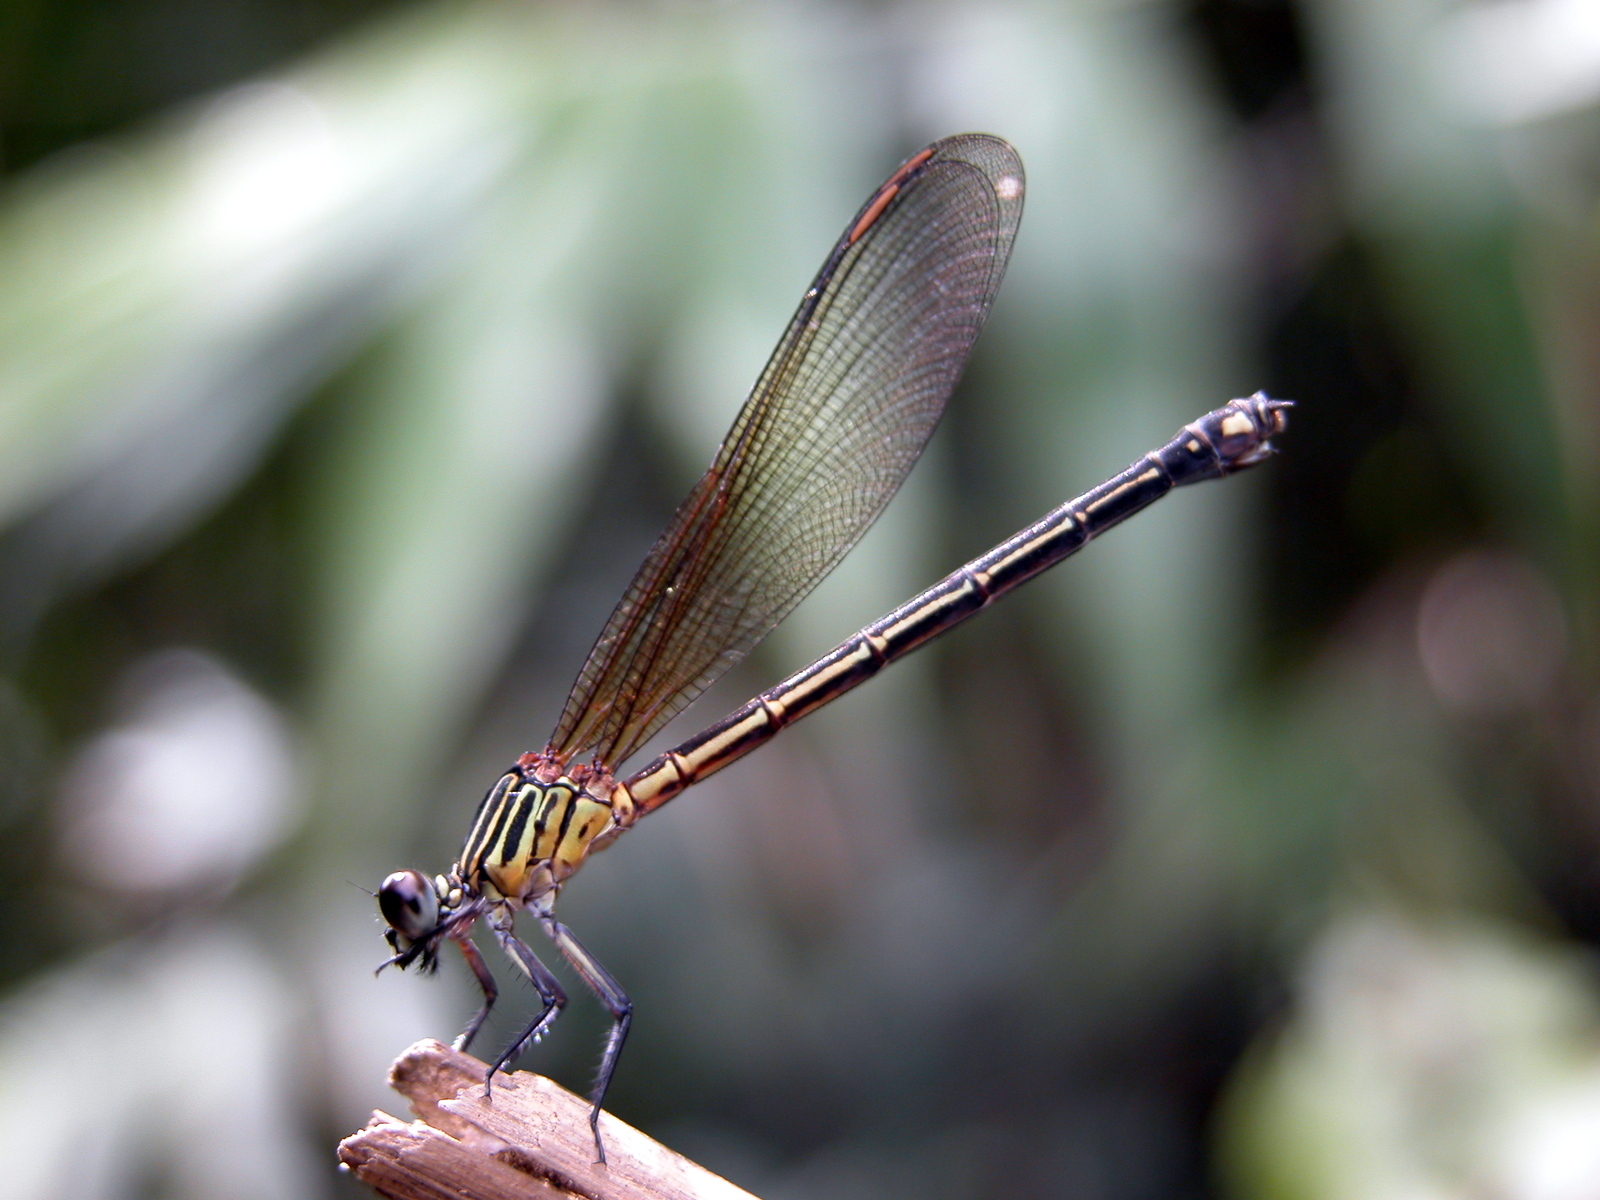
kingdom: Animalia
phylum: Arthropoda
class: Insecta
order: Odonata
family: Euphaeidae
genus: Euphaea
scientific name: Euphaea ochracea
